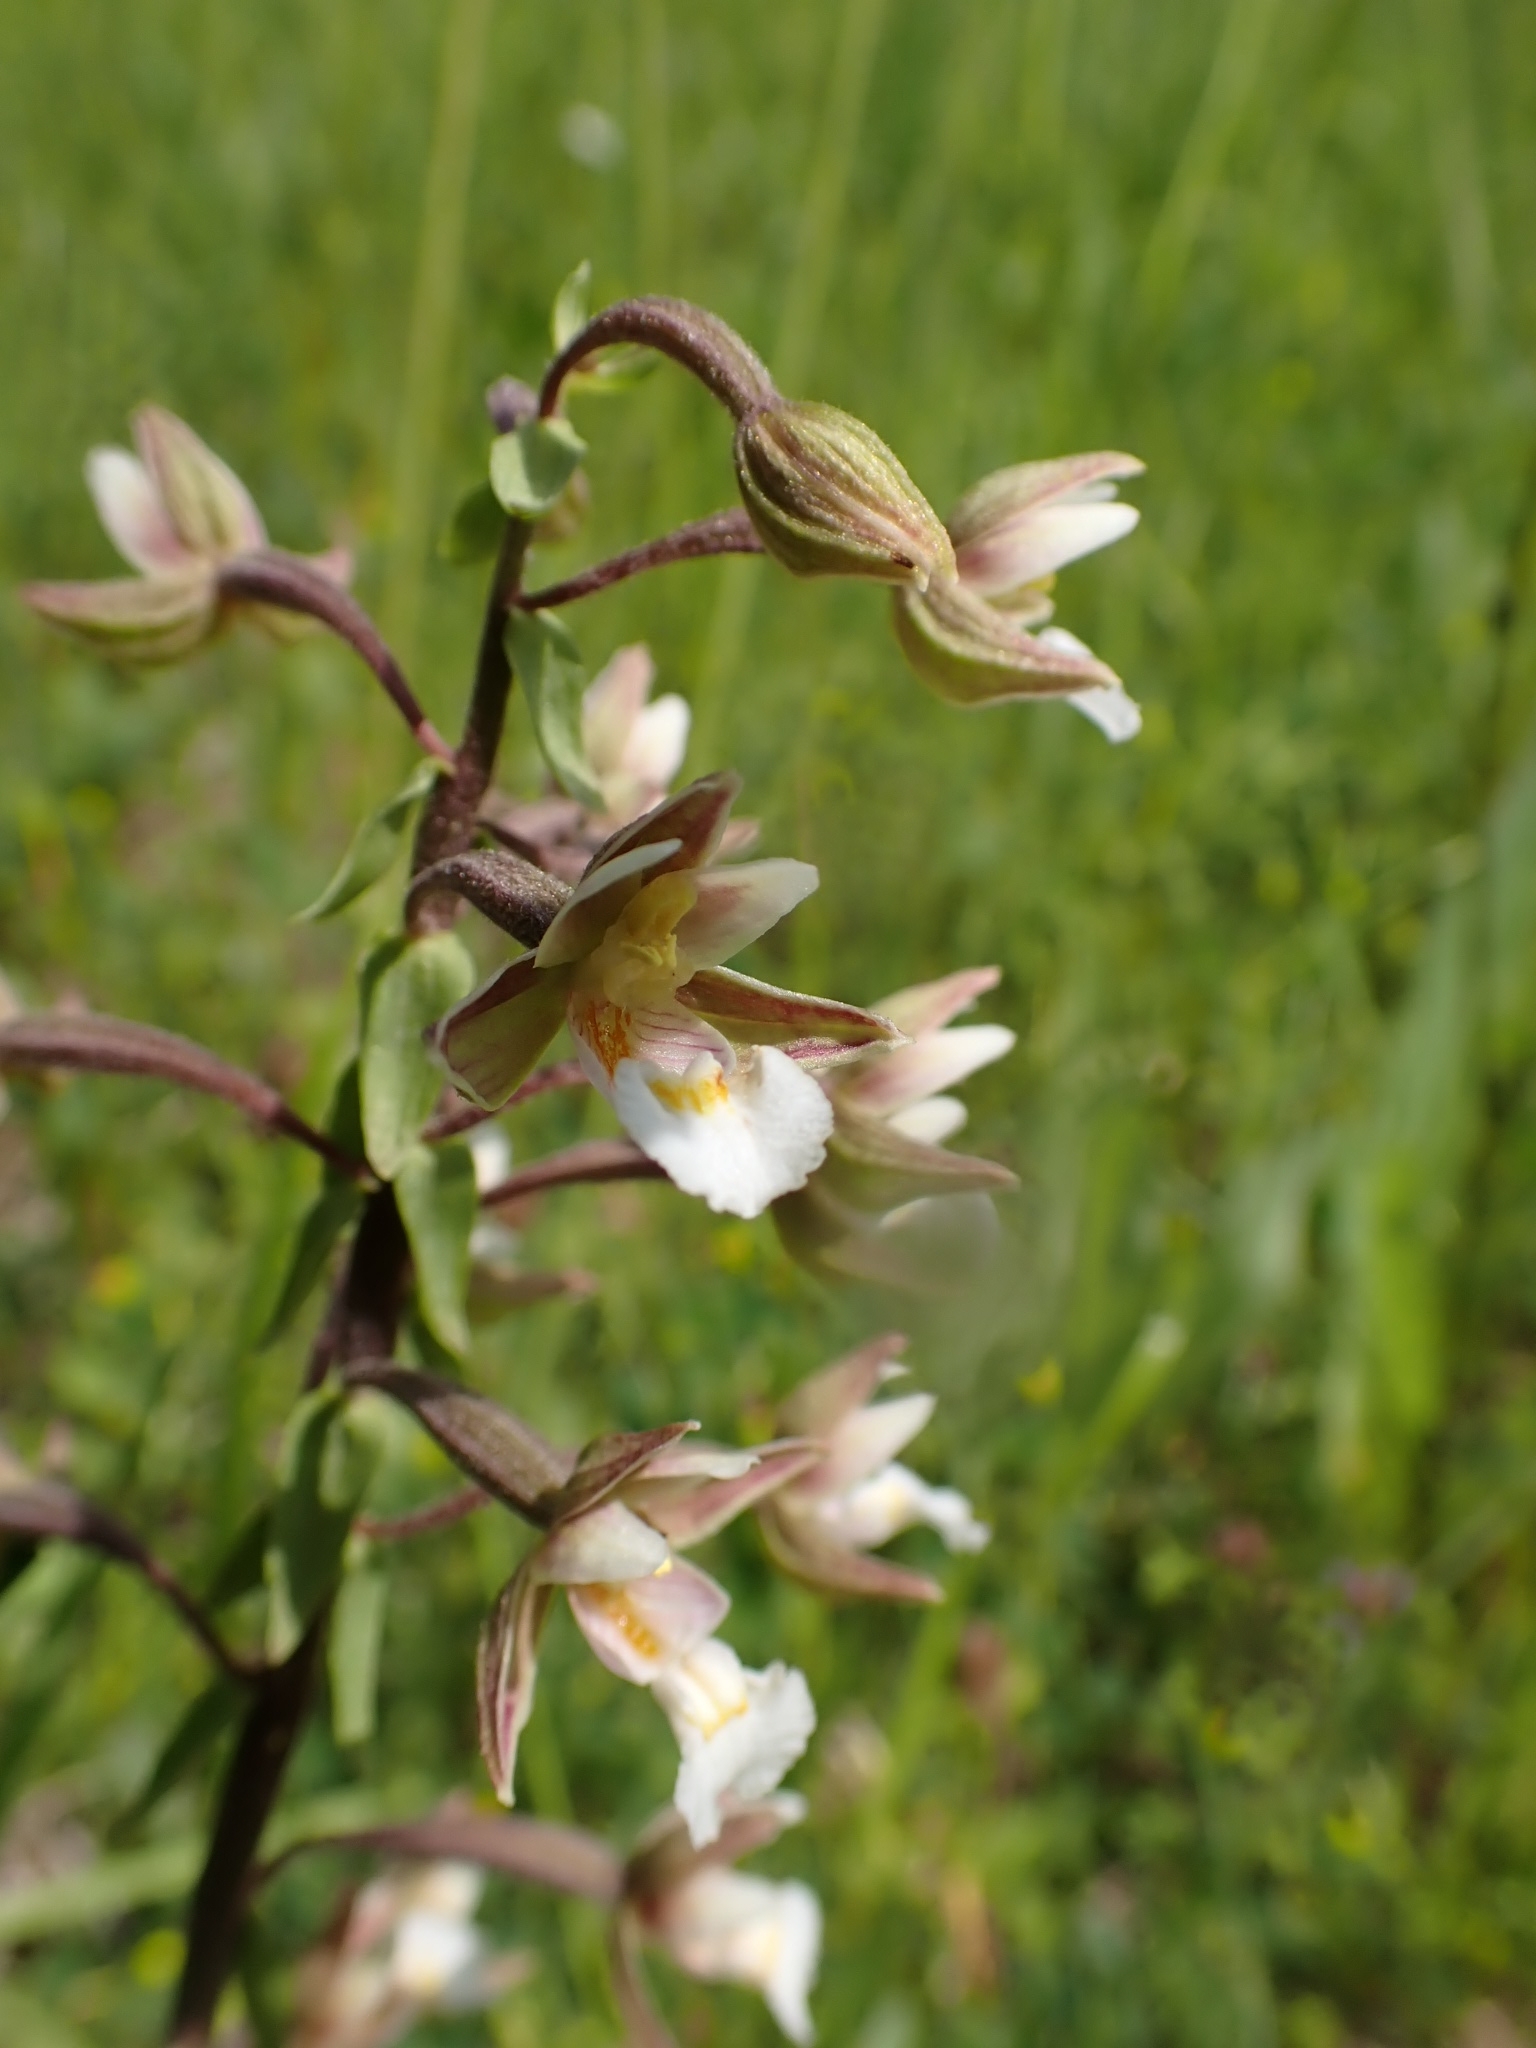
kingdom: Plantae
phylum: Tracheophyta
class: Liliopsida
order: Asparagales
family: Orchidaceae
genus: Epipactis
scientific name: Epipactis palustris
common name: Marsh helleborine
